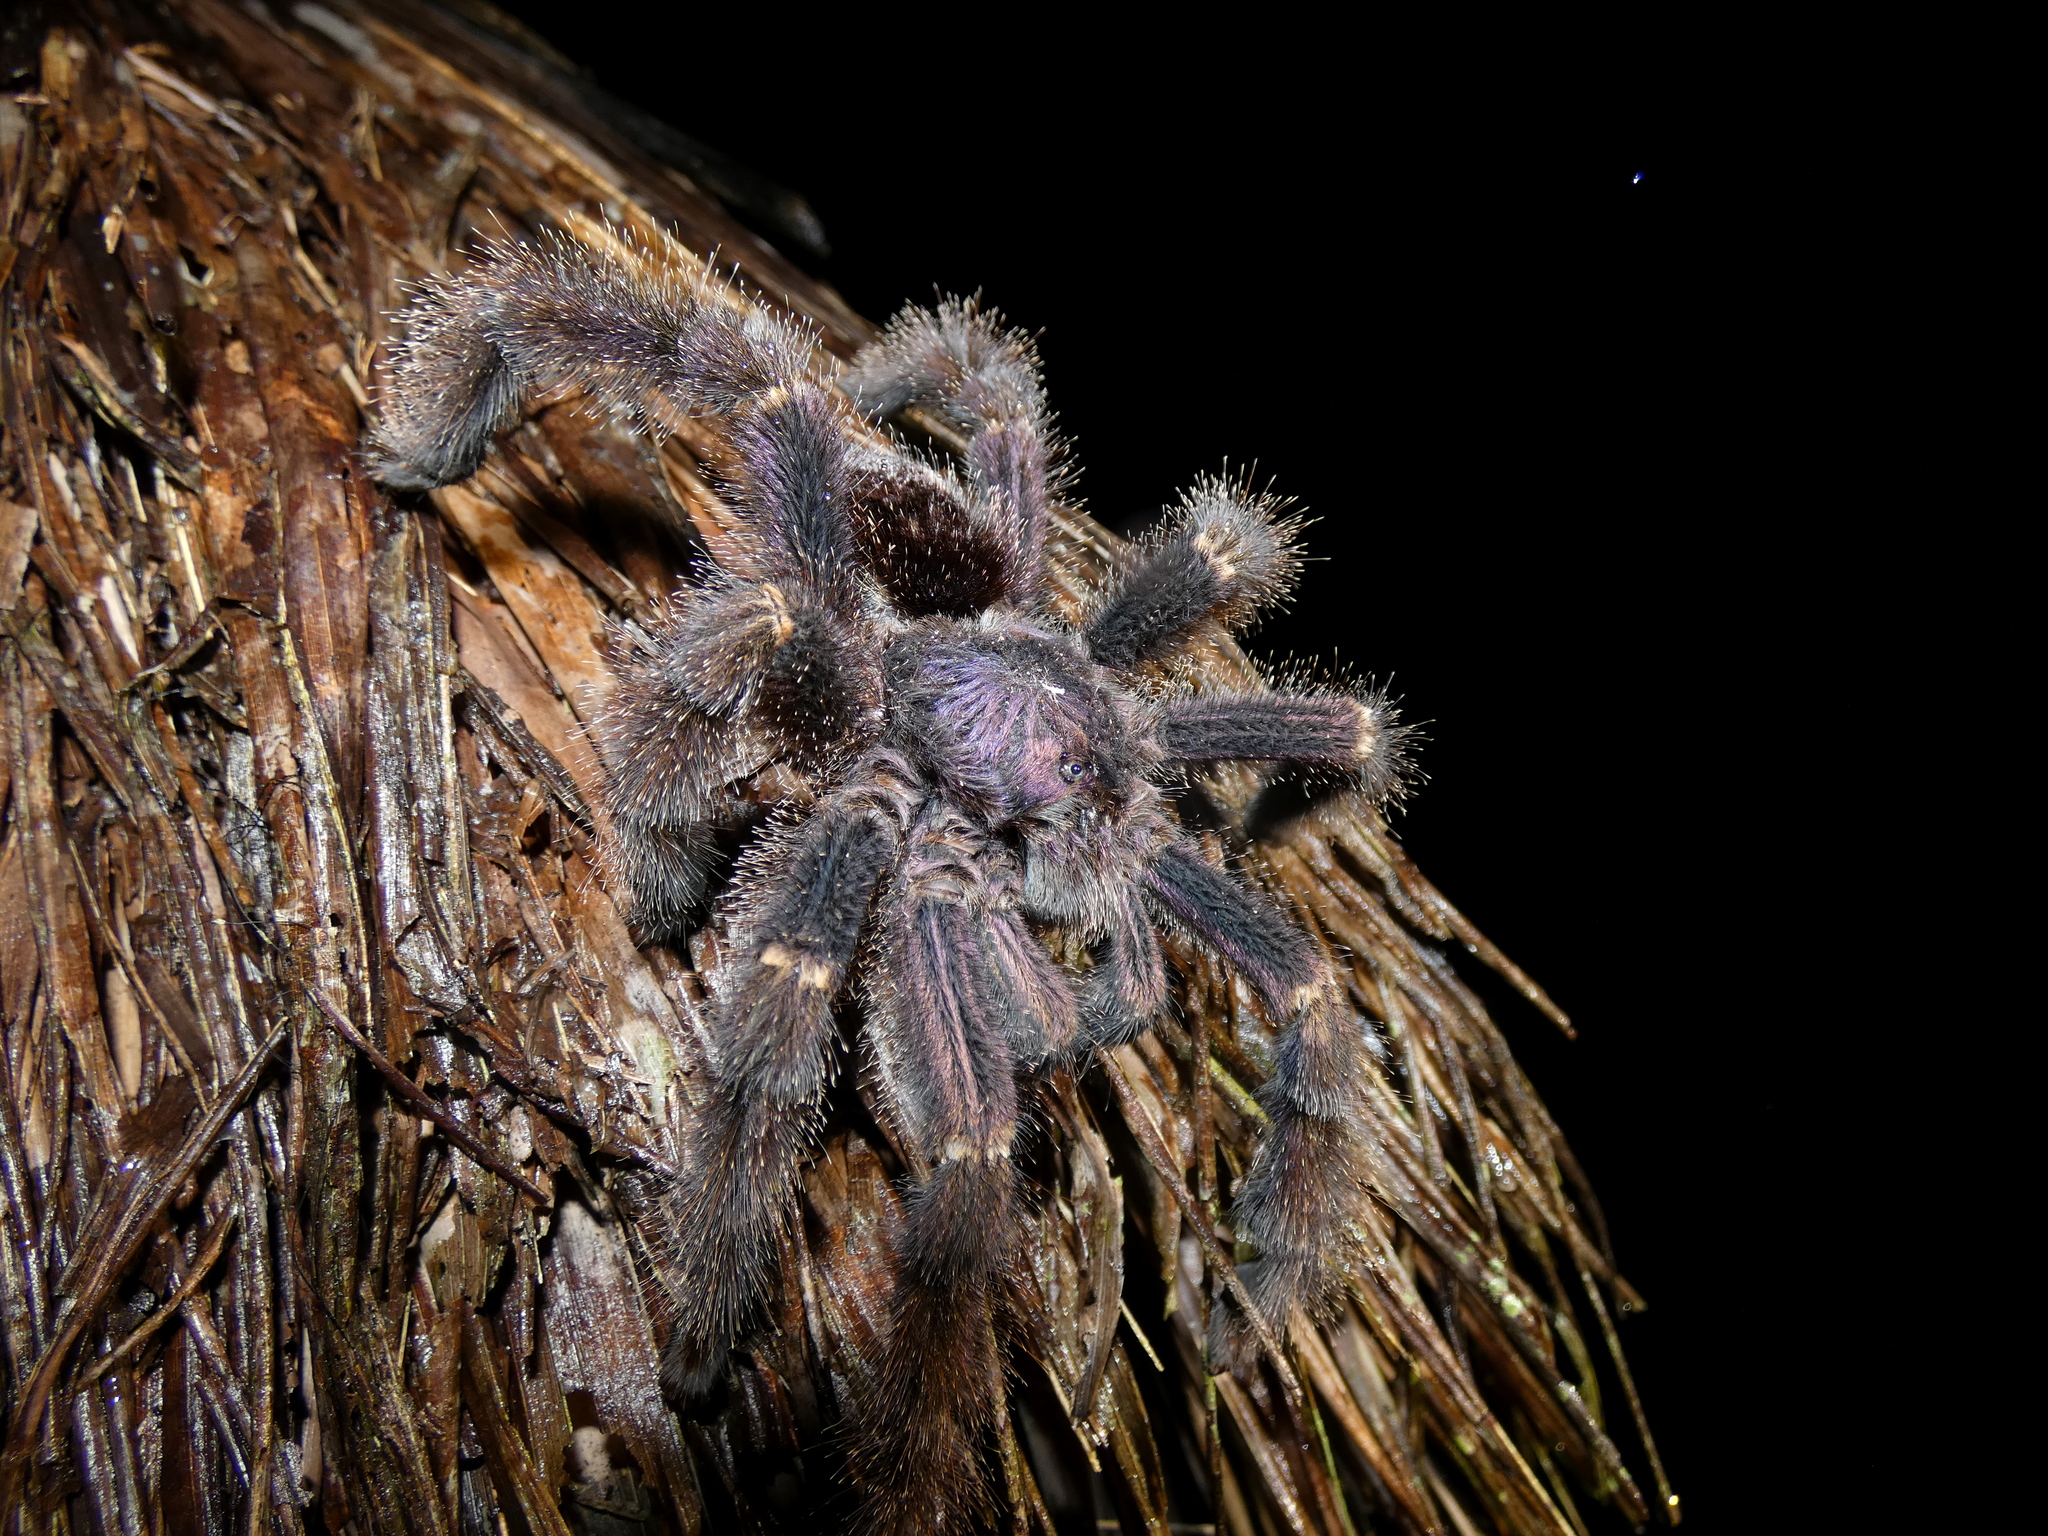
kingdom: Animalia
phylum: Arthropoda
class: Arachnida
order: Araneae
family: Theraphosidae
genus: Avicularia
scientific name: Avicularia juruensis
